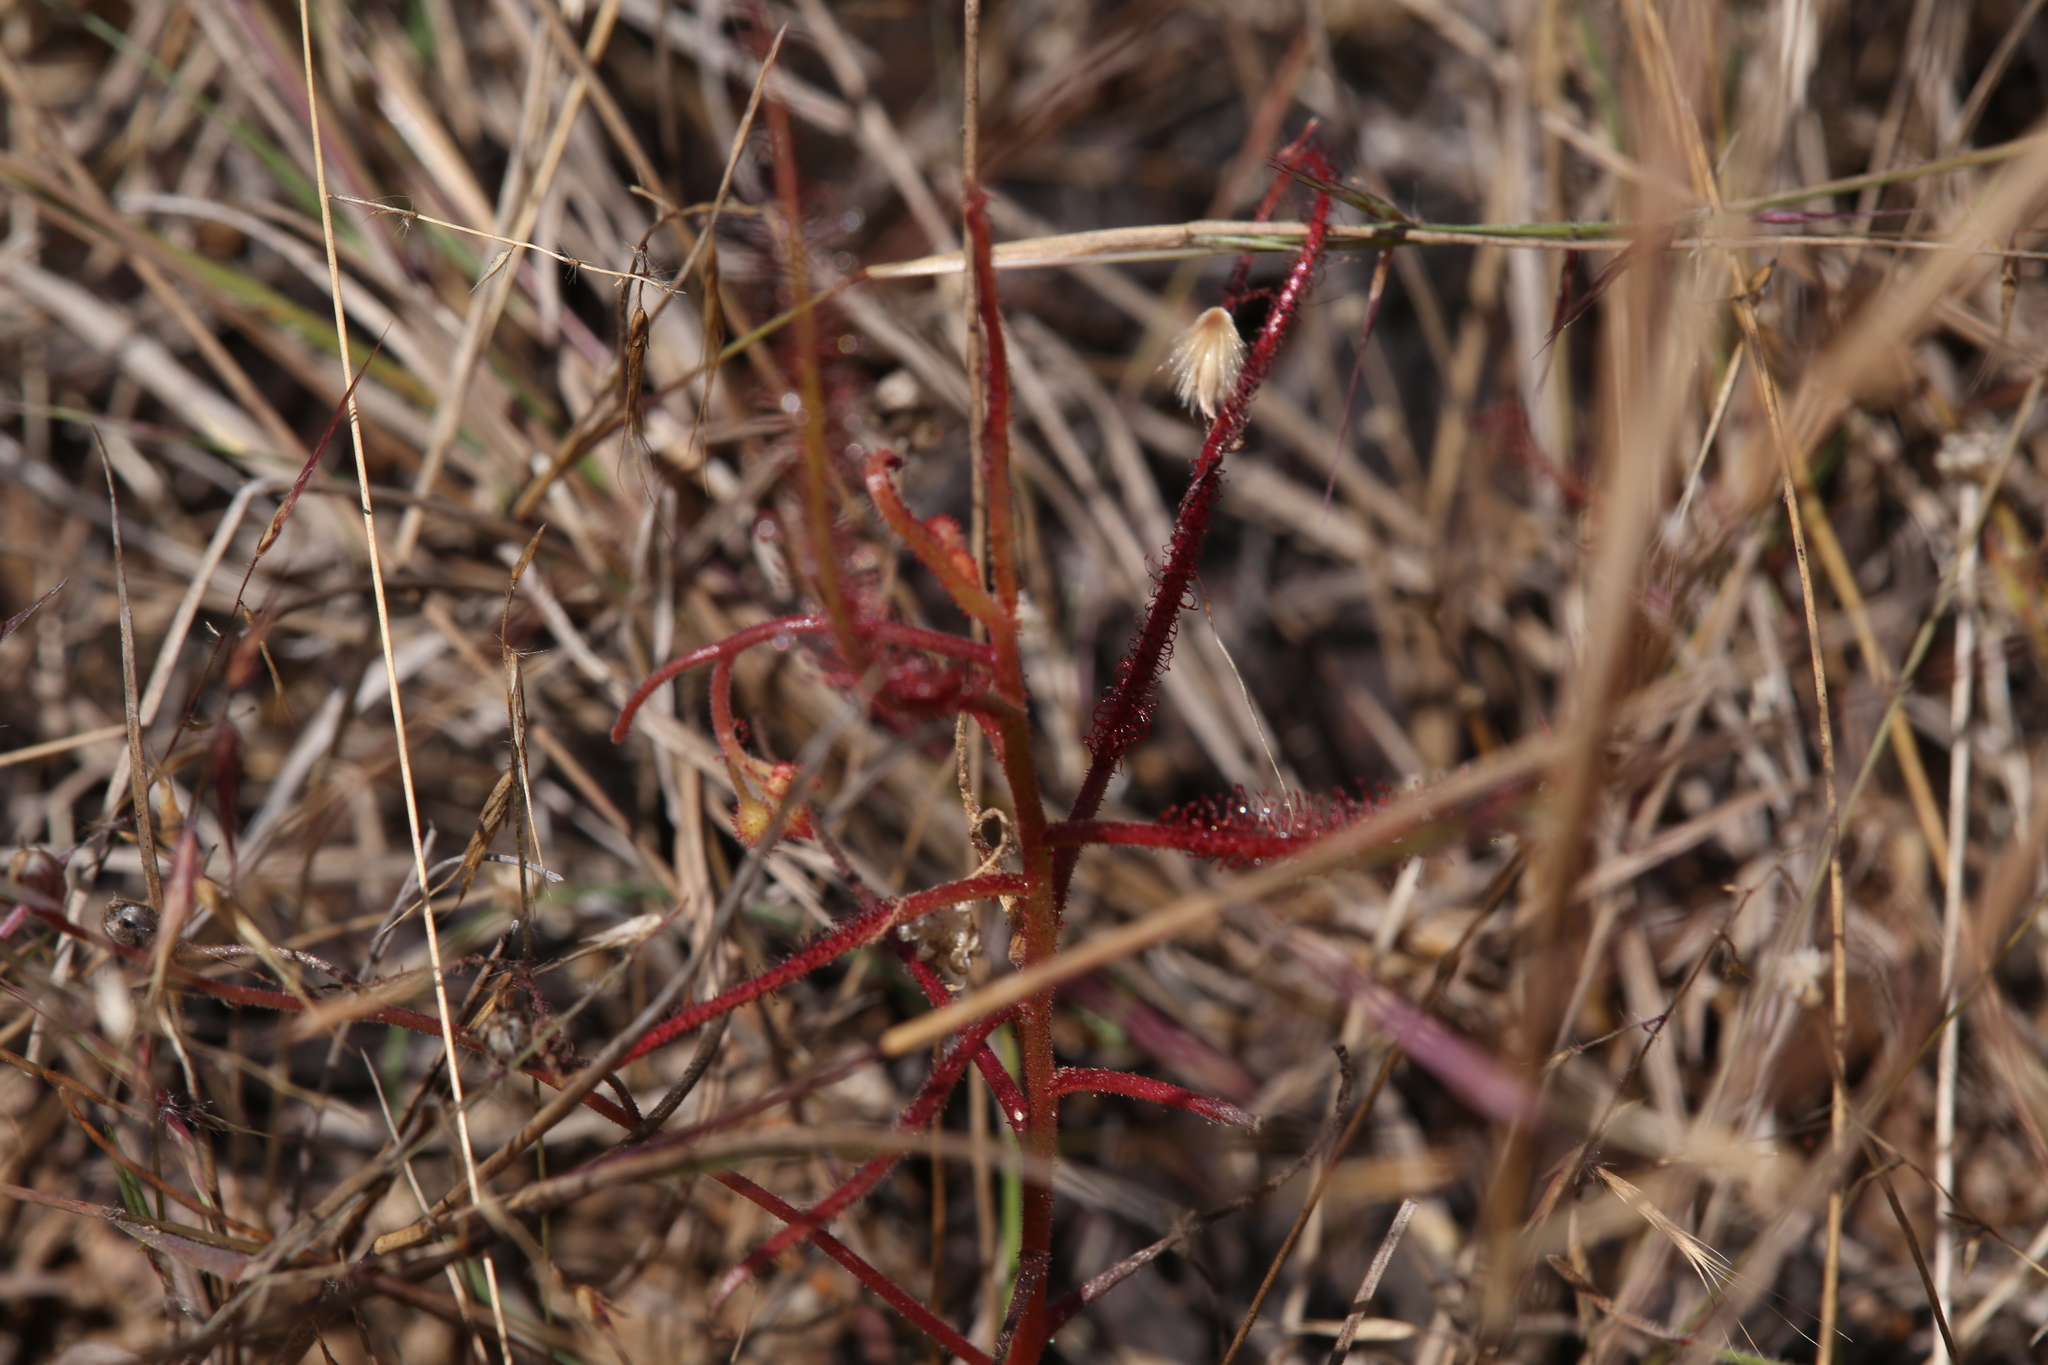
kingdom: Plantae
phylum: Tracheophyta
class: Magnoliopsida
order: Caryophyllales
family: Droseraceae
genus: Drosera
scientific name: Drosera indica
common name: Indian sundew
